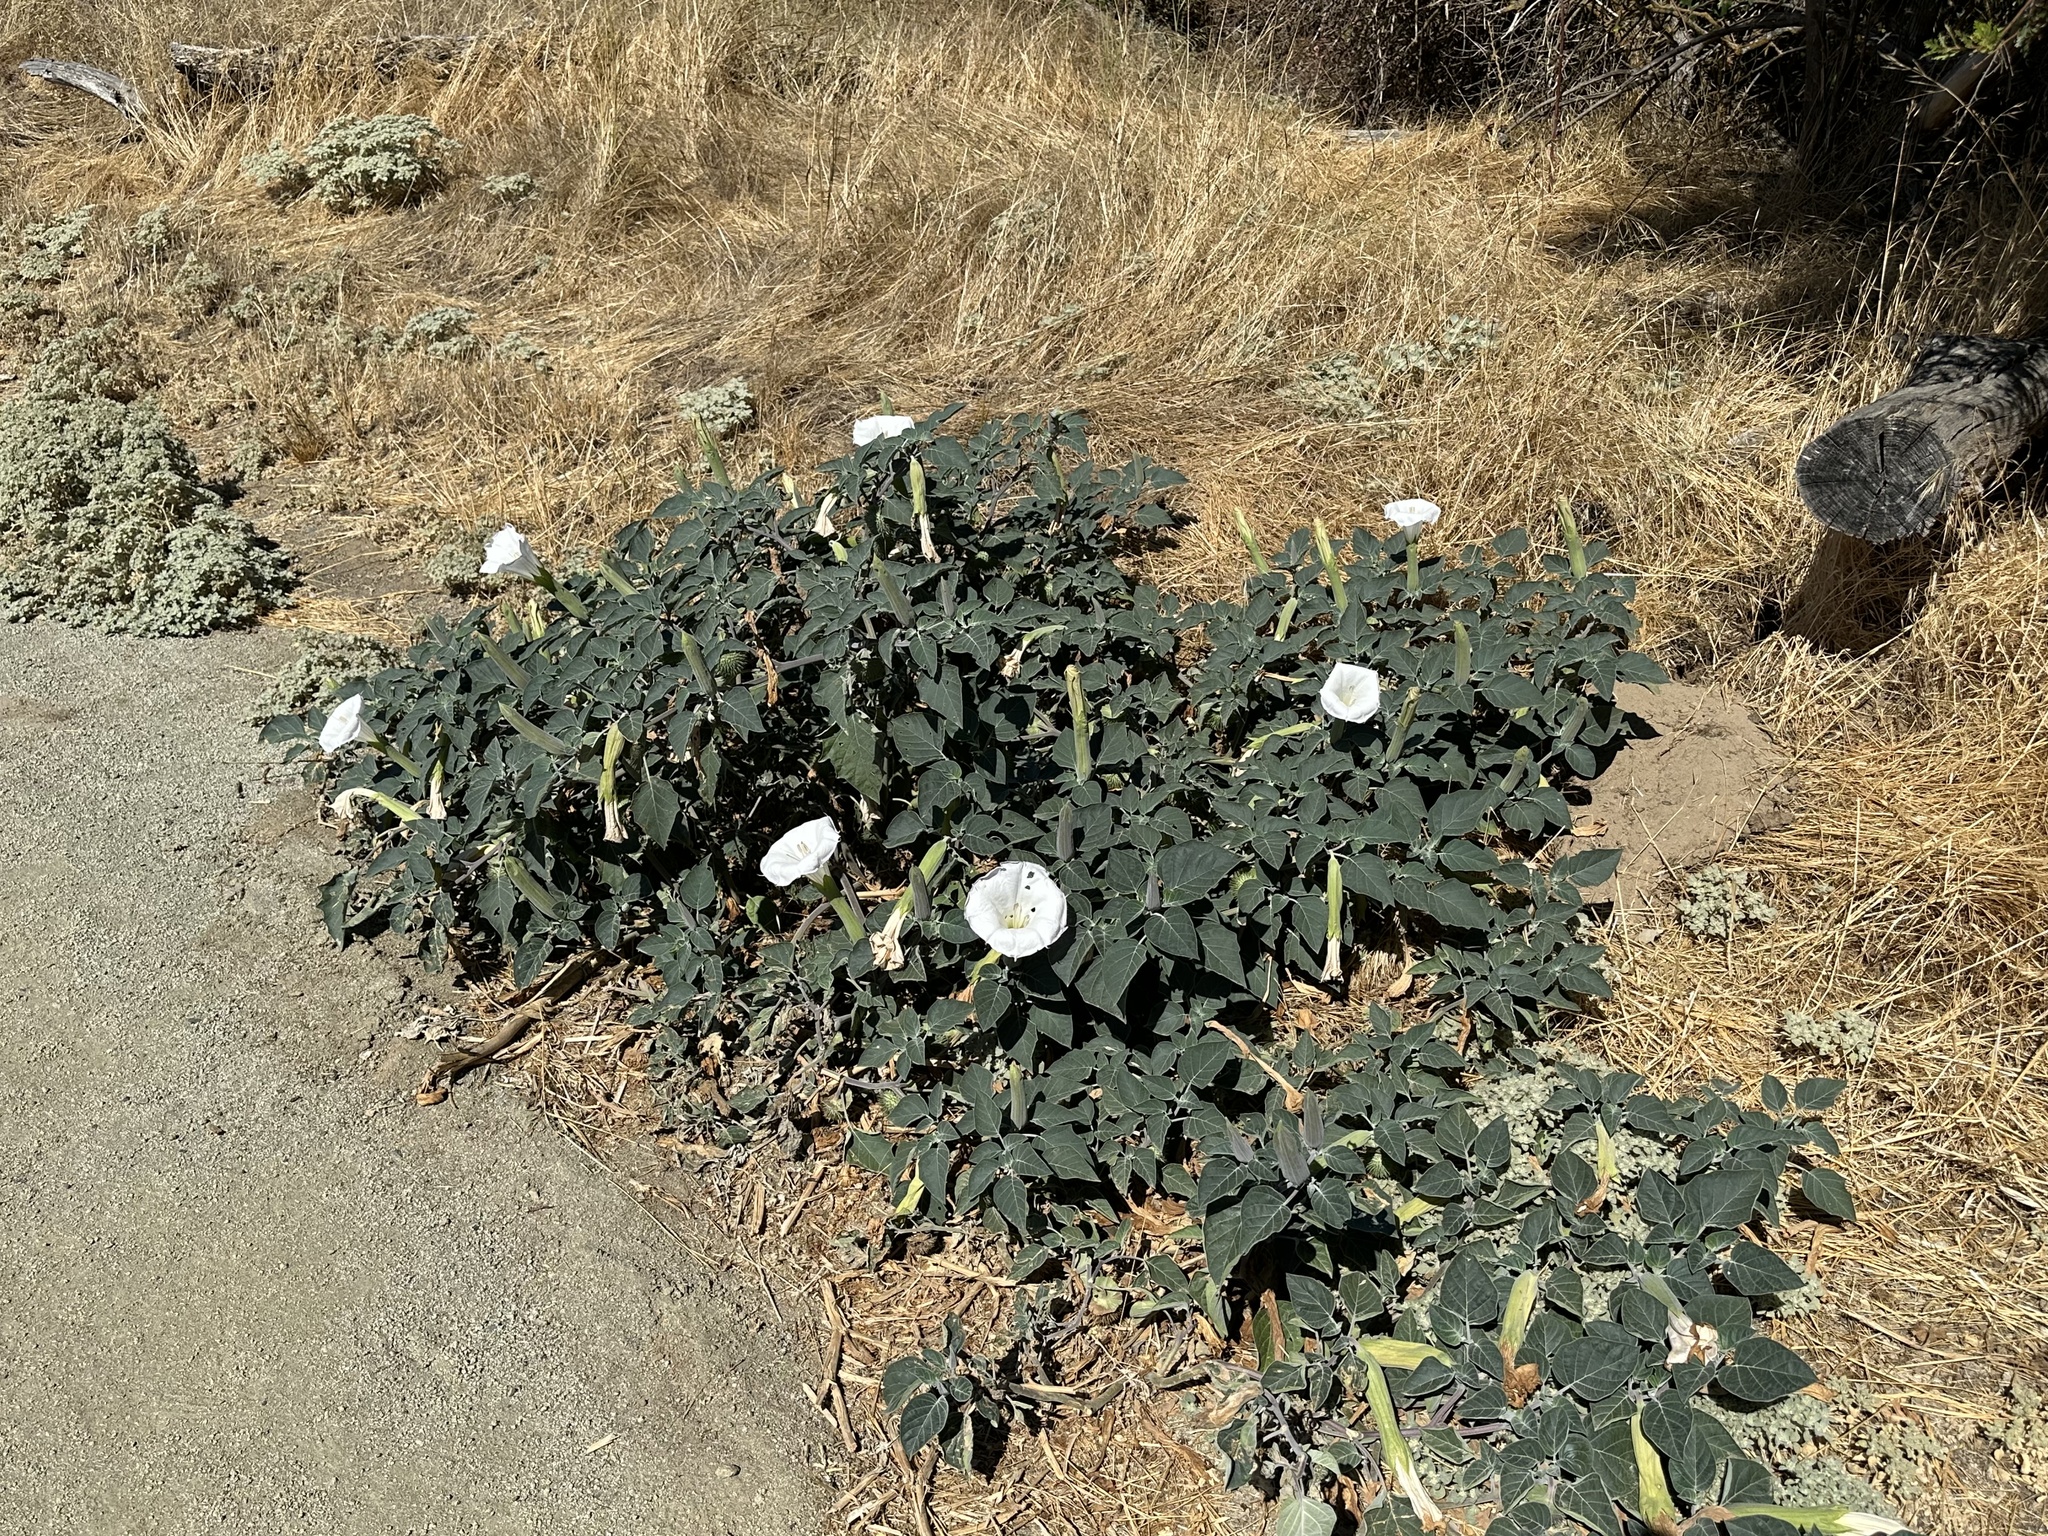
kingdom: Plantae
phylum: Tracheophyta
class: Magnoliopsida
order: Solanales
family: Solanaceae
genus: Datura
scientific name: Datura wrightii
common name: Sacred thorn-apple
